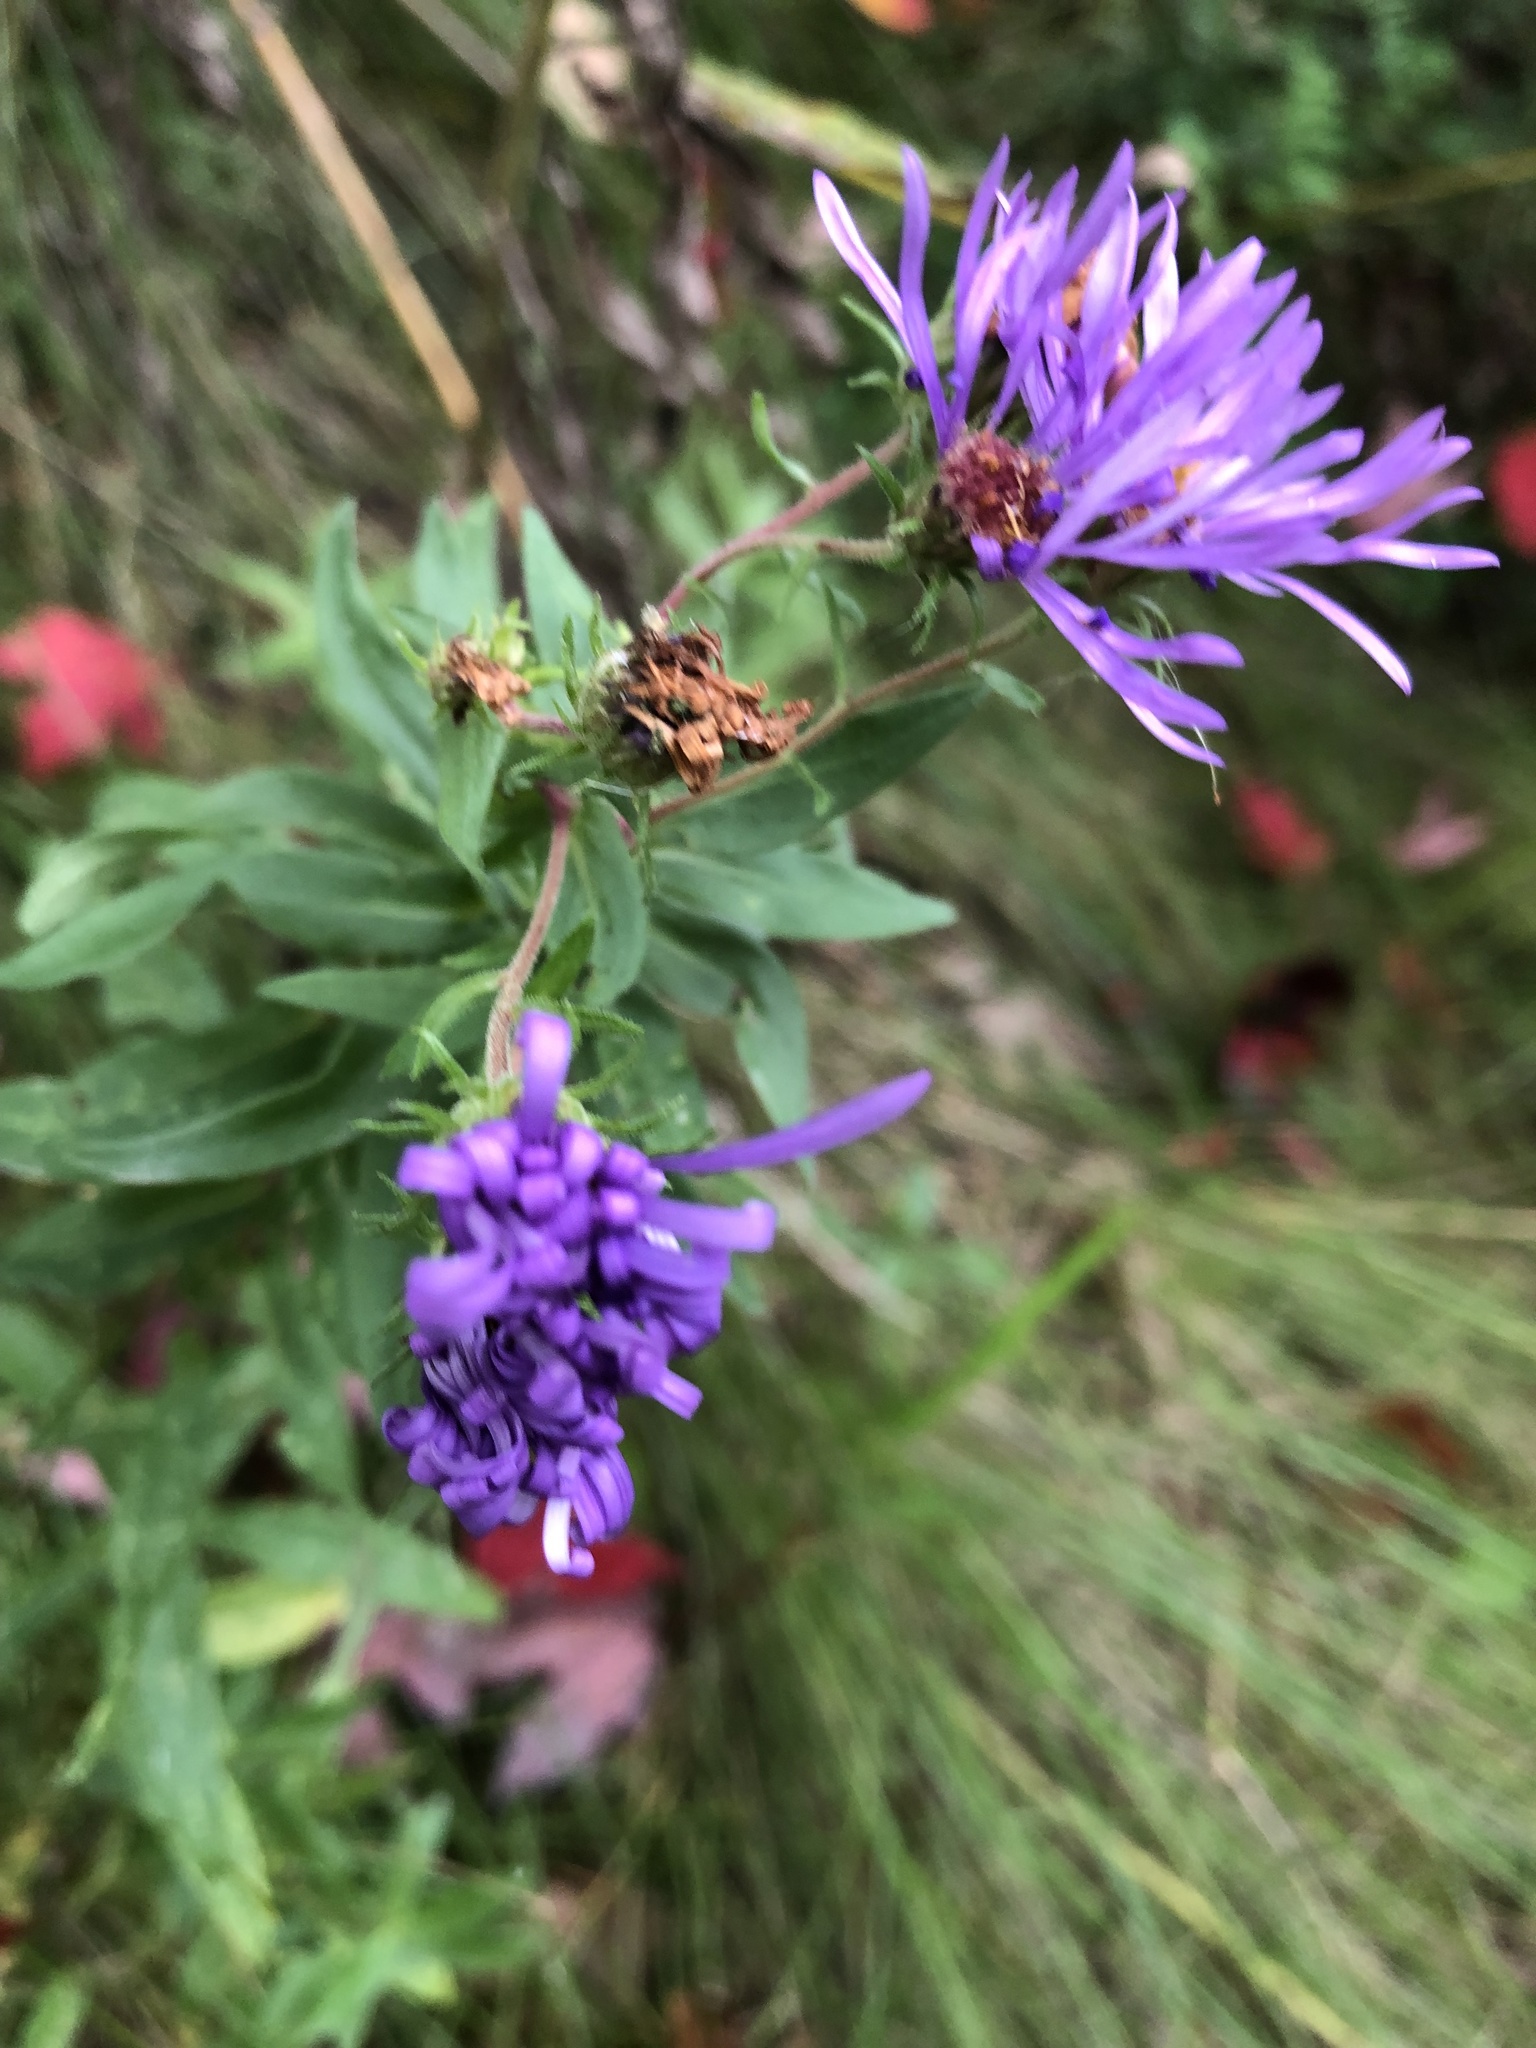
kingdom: Plantae
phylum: Tracheophyta
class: Magnoliopsida
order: Asterales
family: Asteraceae
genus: Symphyotrichum
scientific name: Symphyotrichum novae-angliae
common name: Michaelmas daisy
